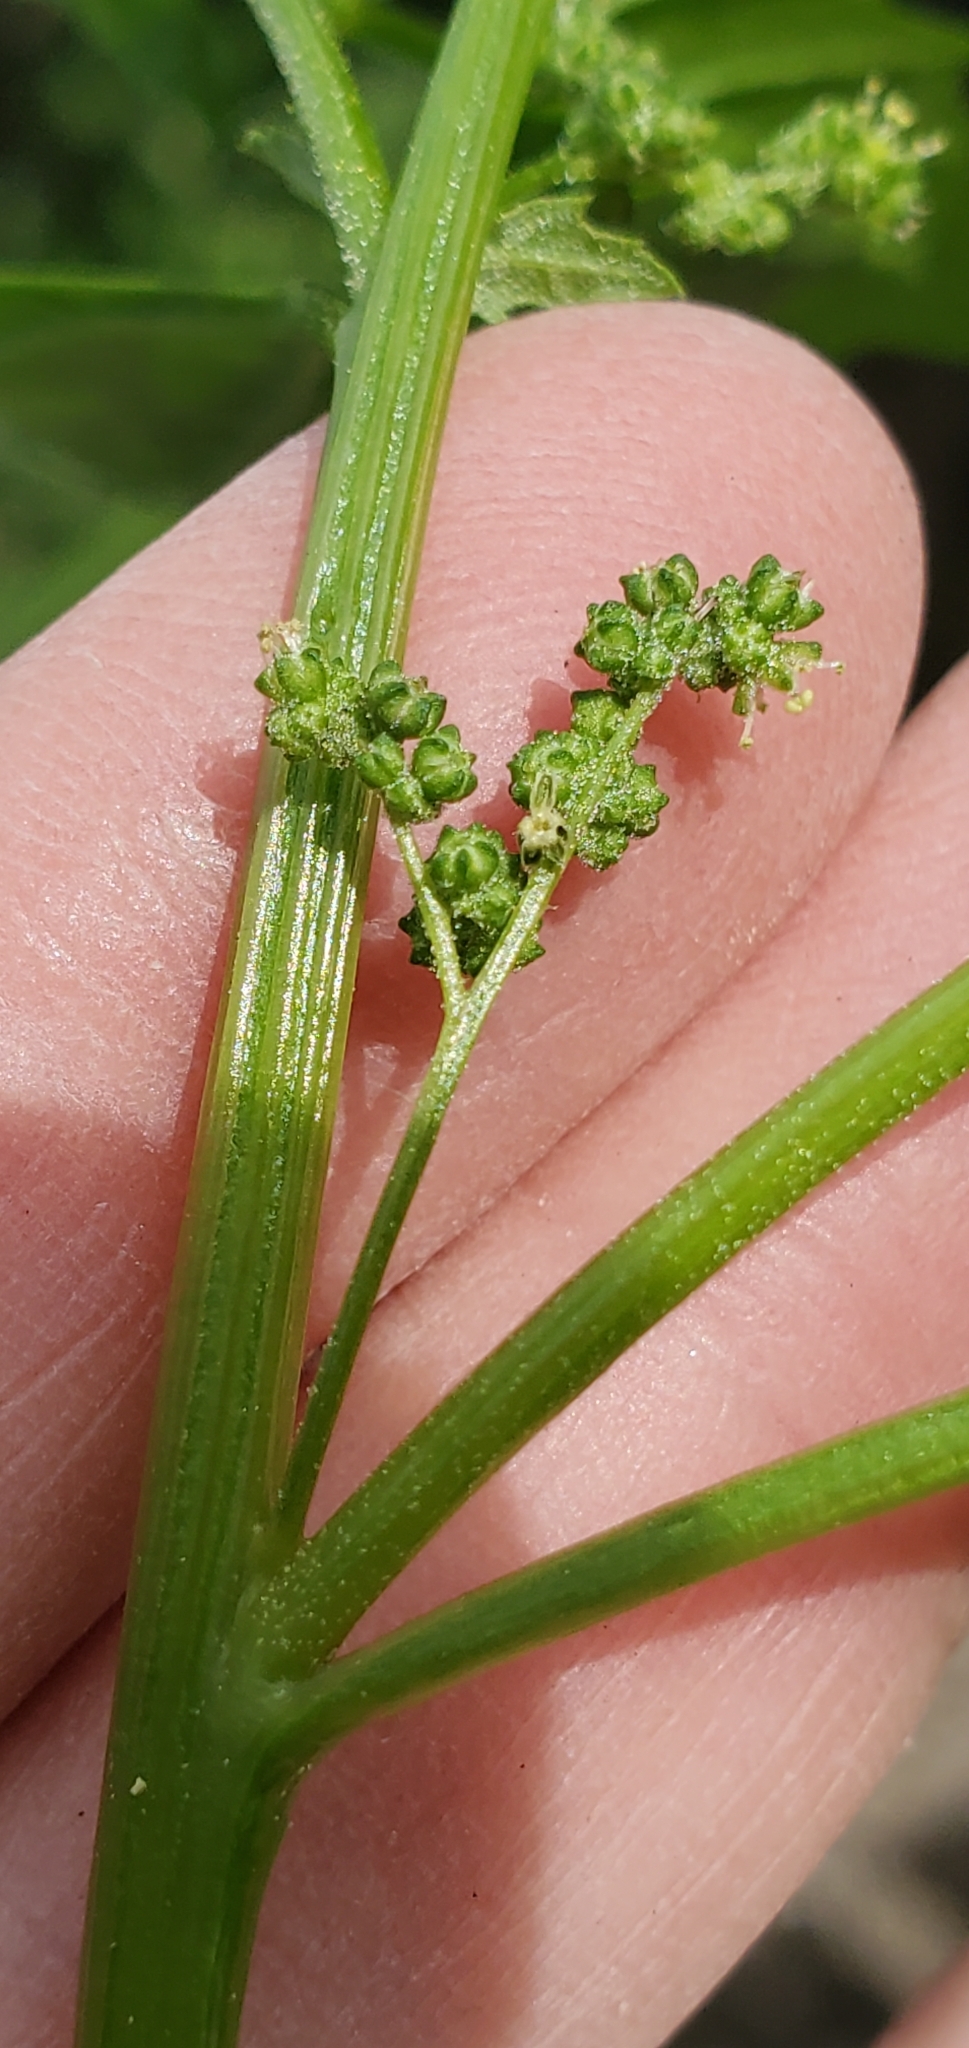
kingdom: Plantae
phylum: Tracheophyta
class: Magnoliopsida
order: Caryophyllales
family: Amaranthaceae
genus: Chenopodiastrum
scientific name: Chenopodiastrum murale
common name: Sowbane
